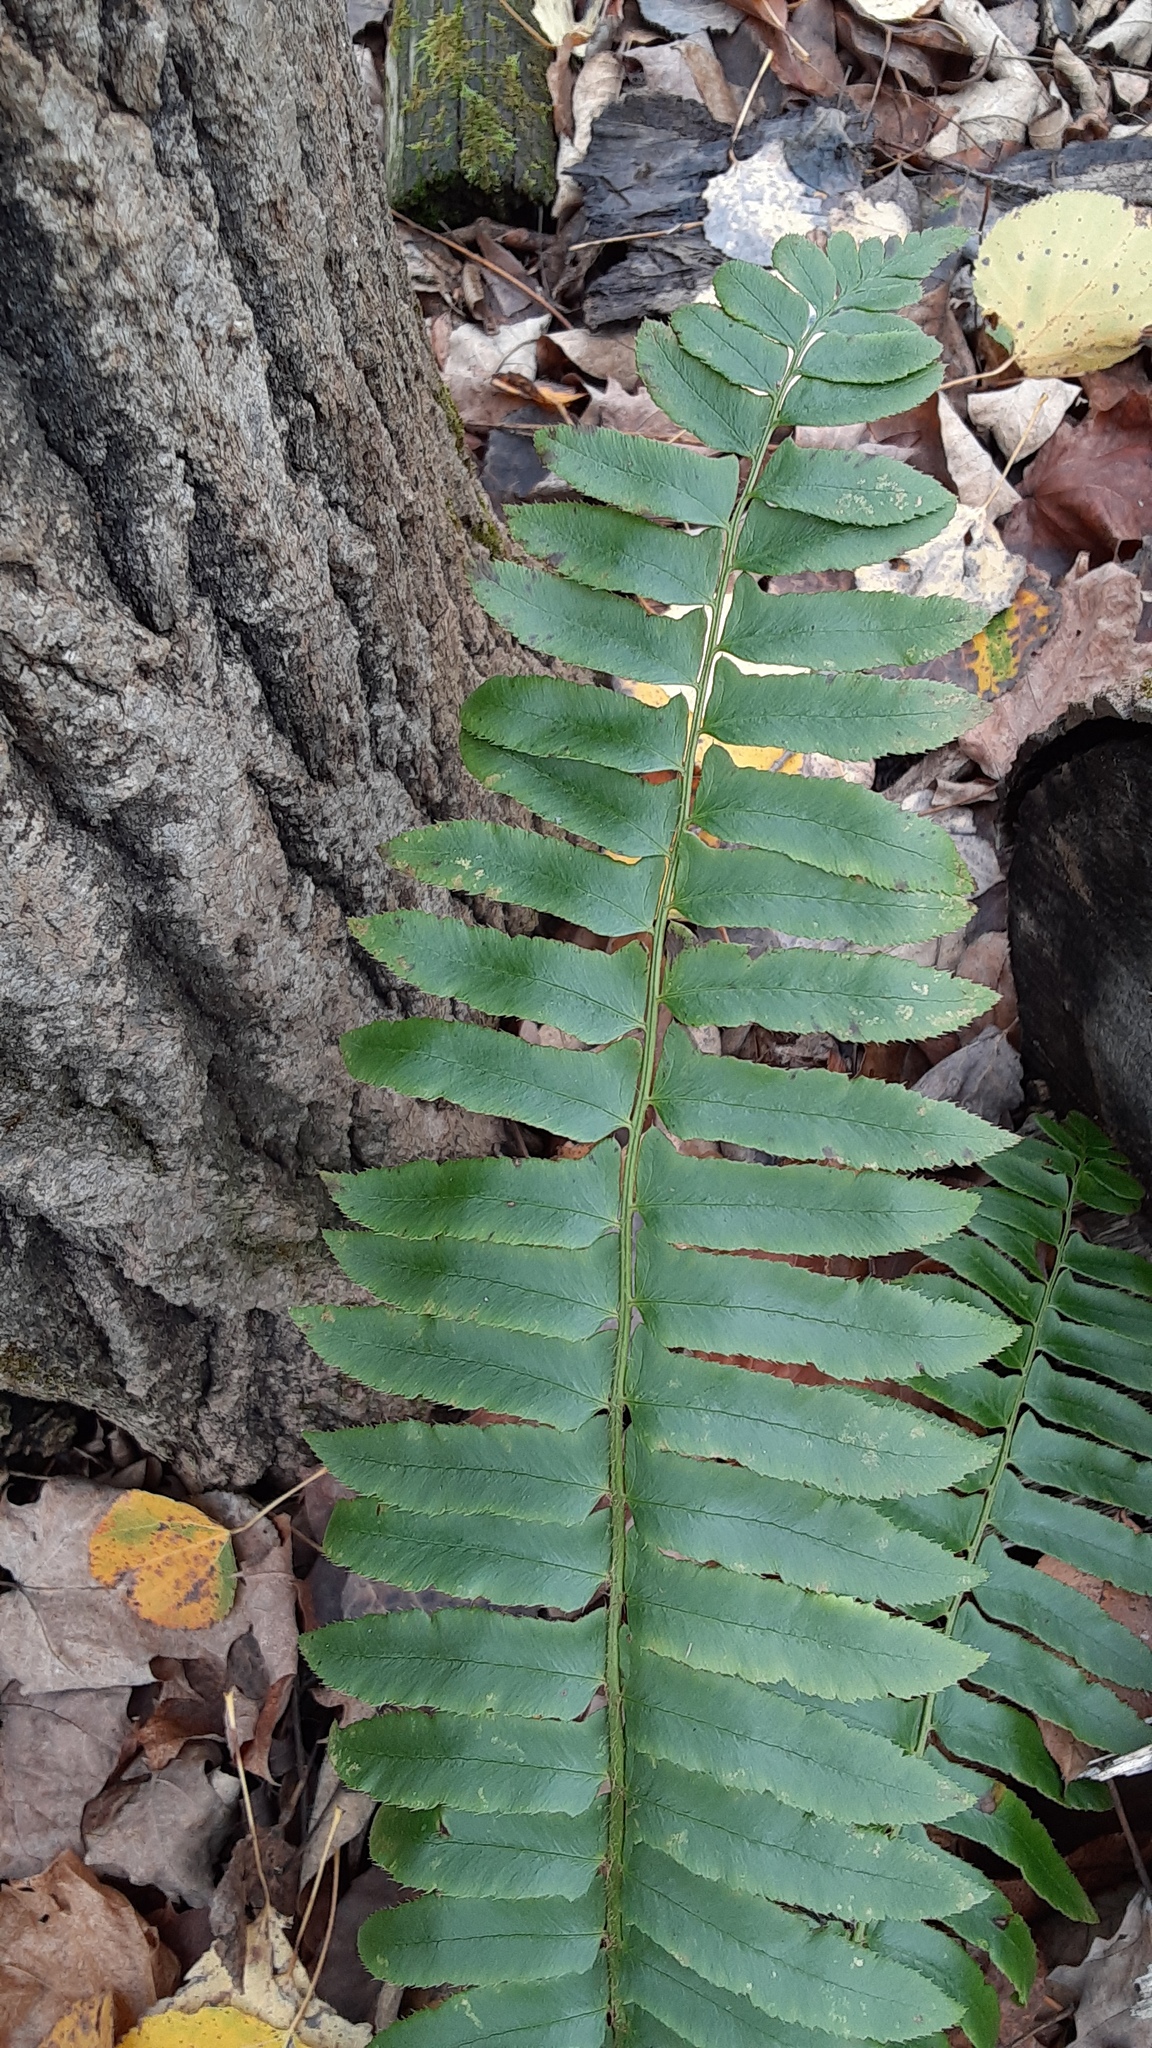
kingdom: Plantae
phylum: Tracheophyta
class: Polypodiopsida
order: Polypodiales
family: Dryopteridaceae
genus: Polystichum
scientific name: Polystichum acrostichoides
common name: Christmas fern
